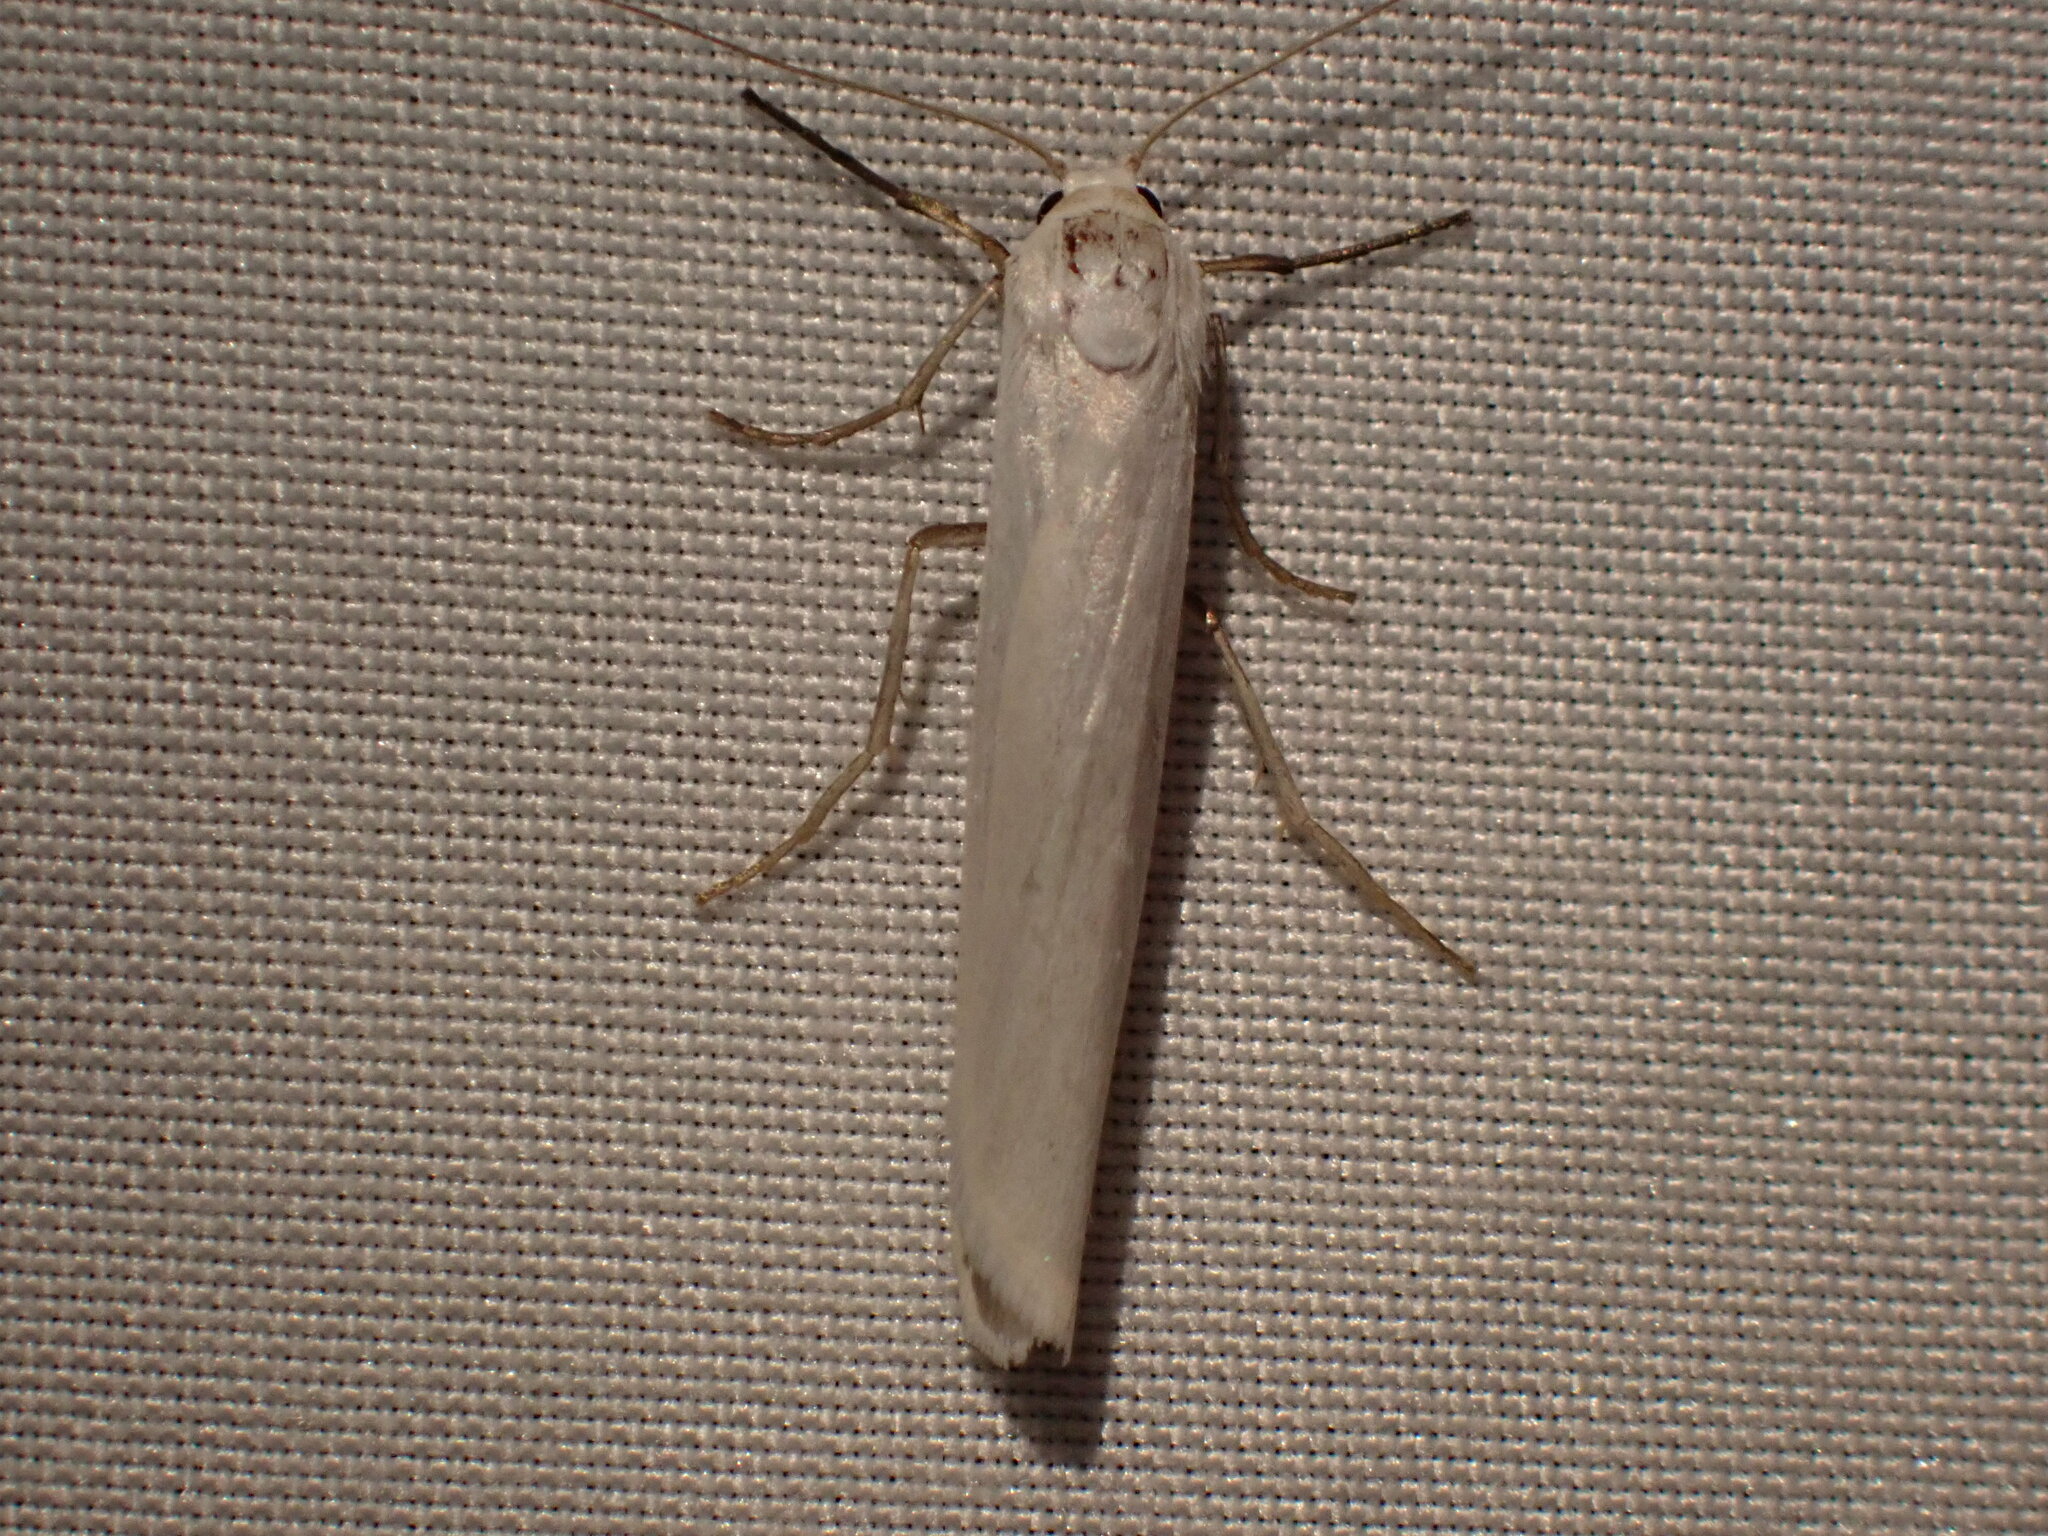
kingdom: Animalia
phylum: Arthropoda
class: Insecta
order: Lepidoptera
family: Erebidae
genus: Crambidia
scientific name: Crambidia casta
